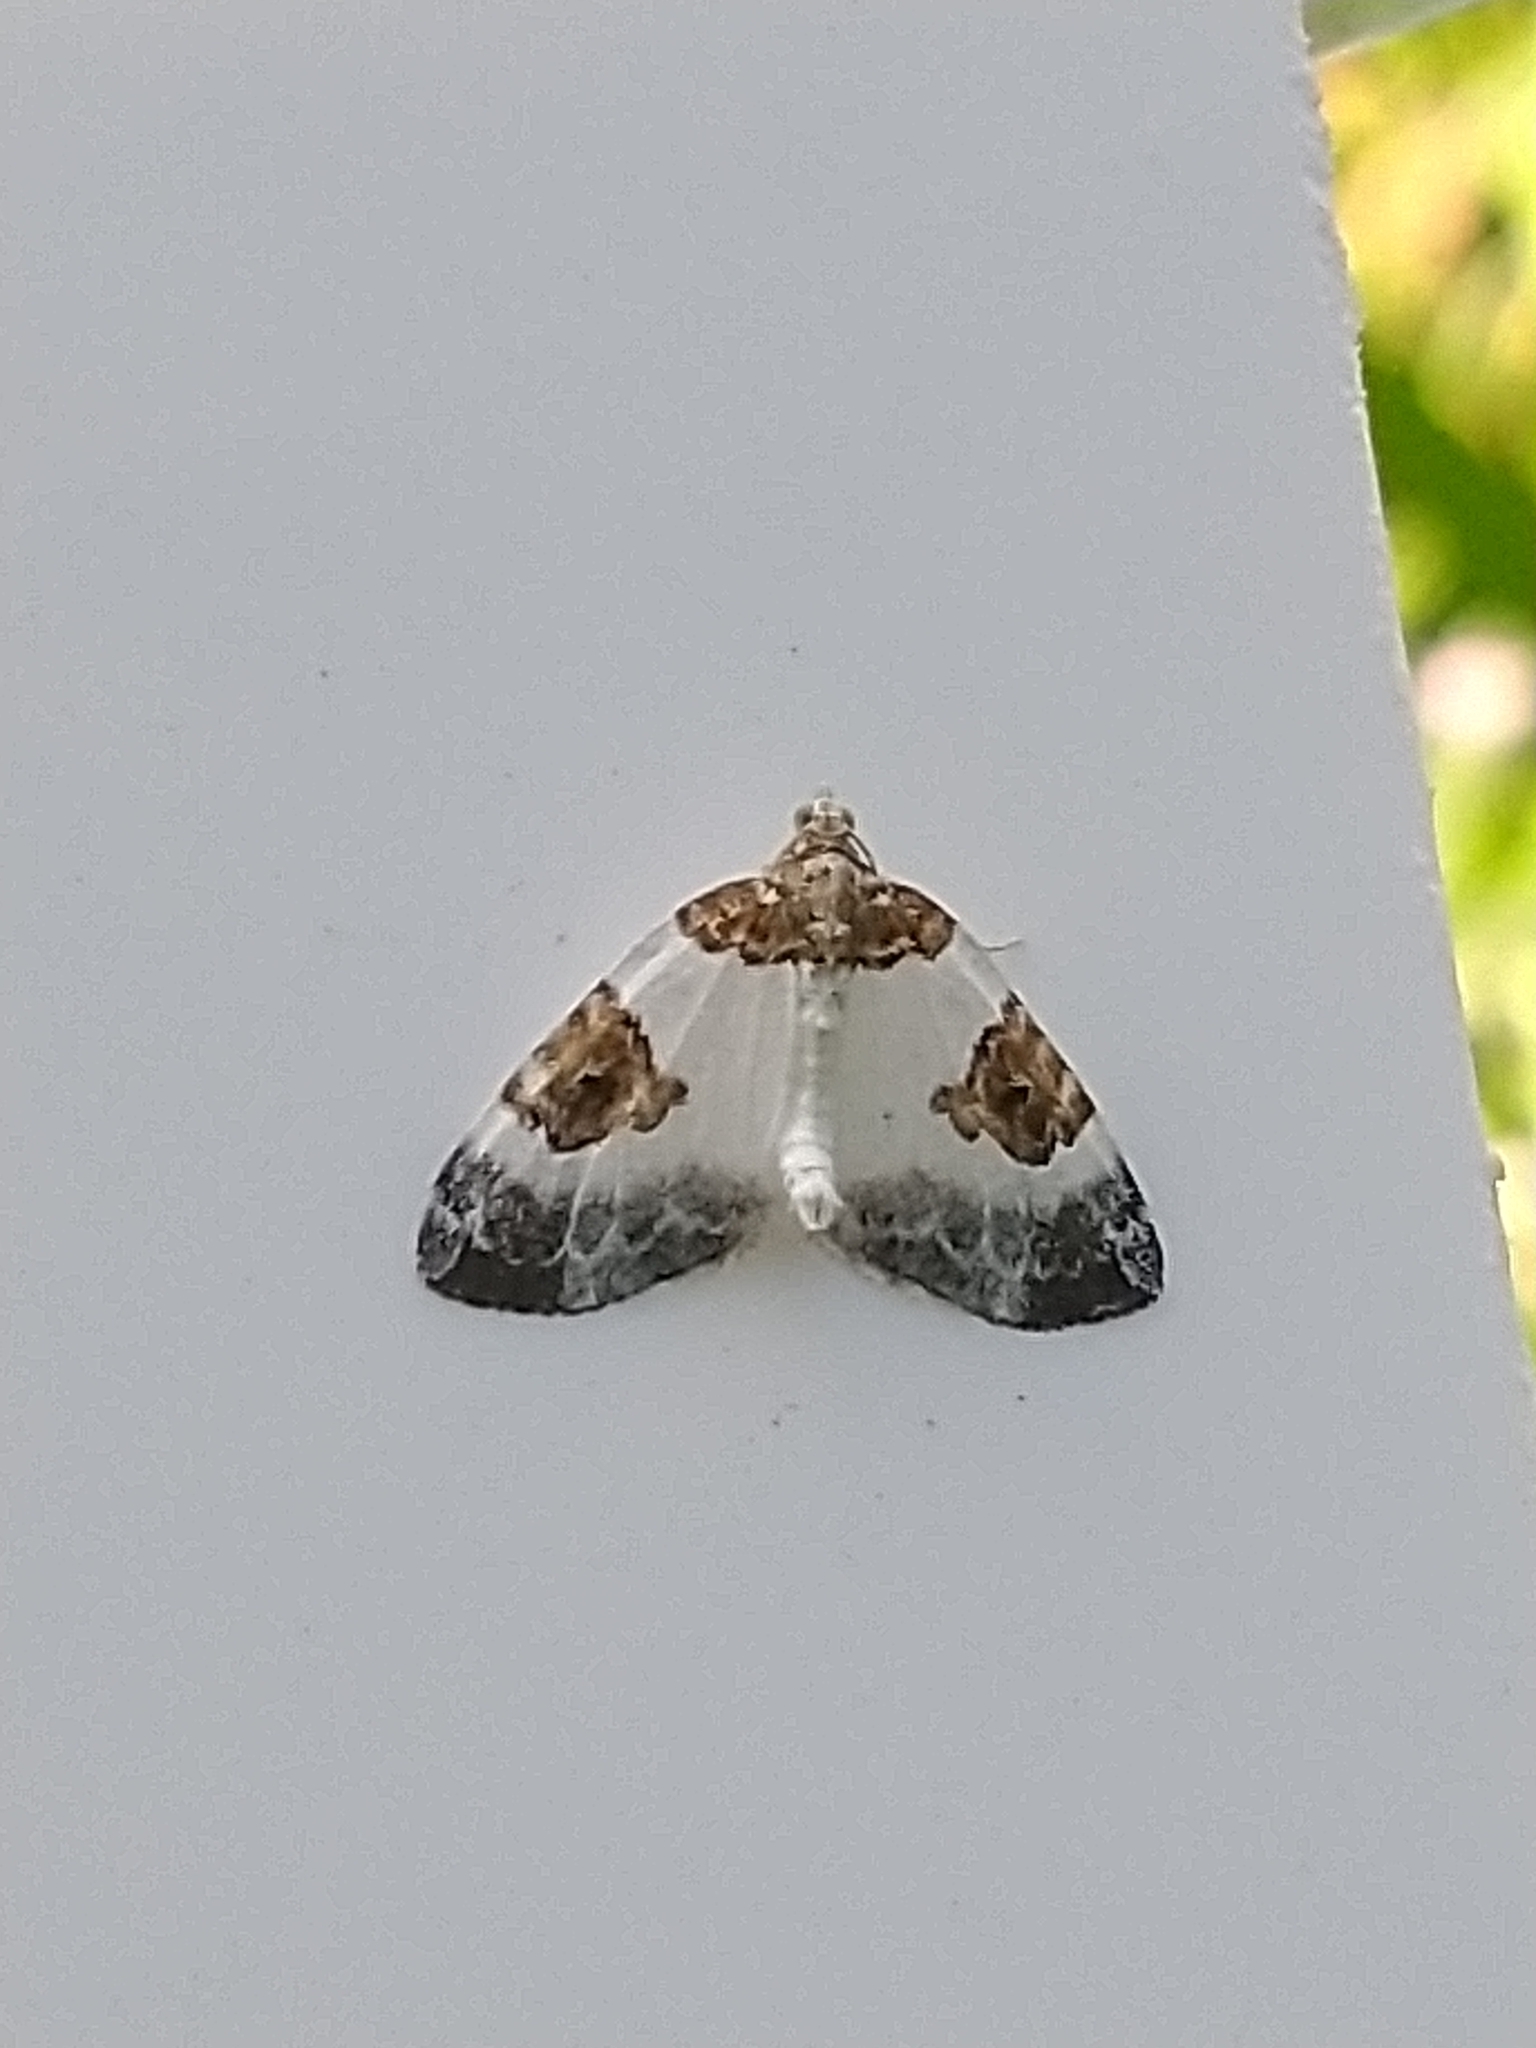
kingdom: Animalia
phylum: Arthropoda
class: Insecta
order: Lepidoptera
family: Geometridae
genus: Plemyria
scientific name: Plemyria rubiginata
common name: Blue-bordered carpet
